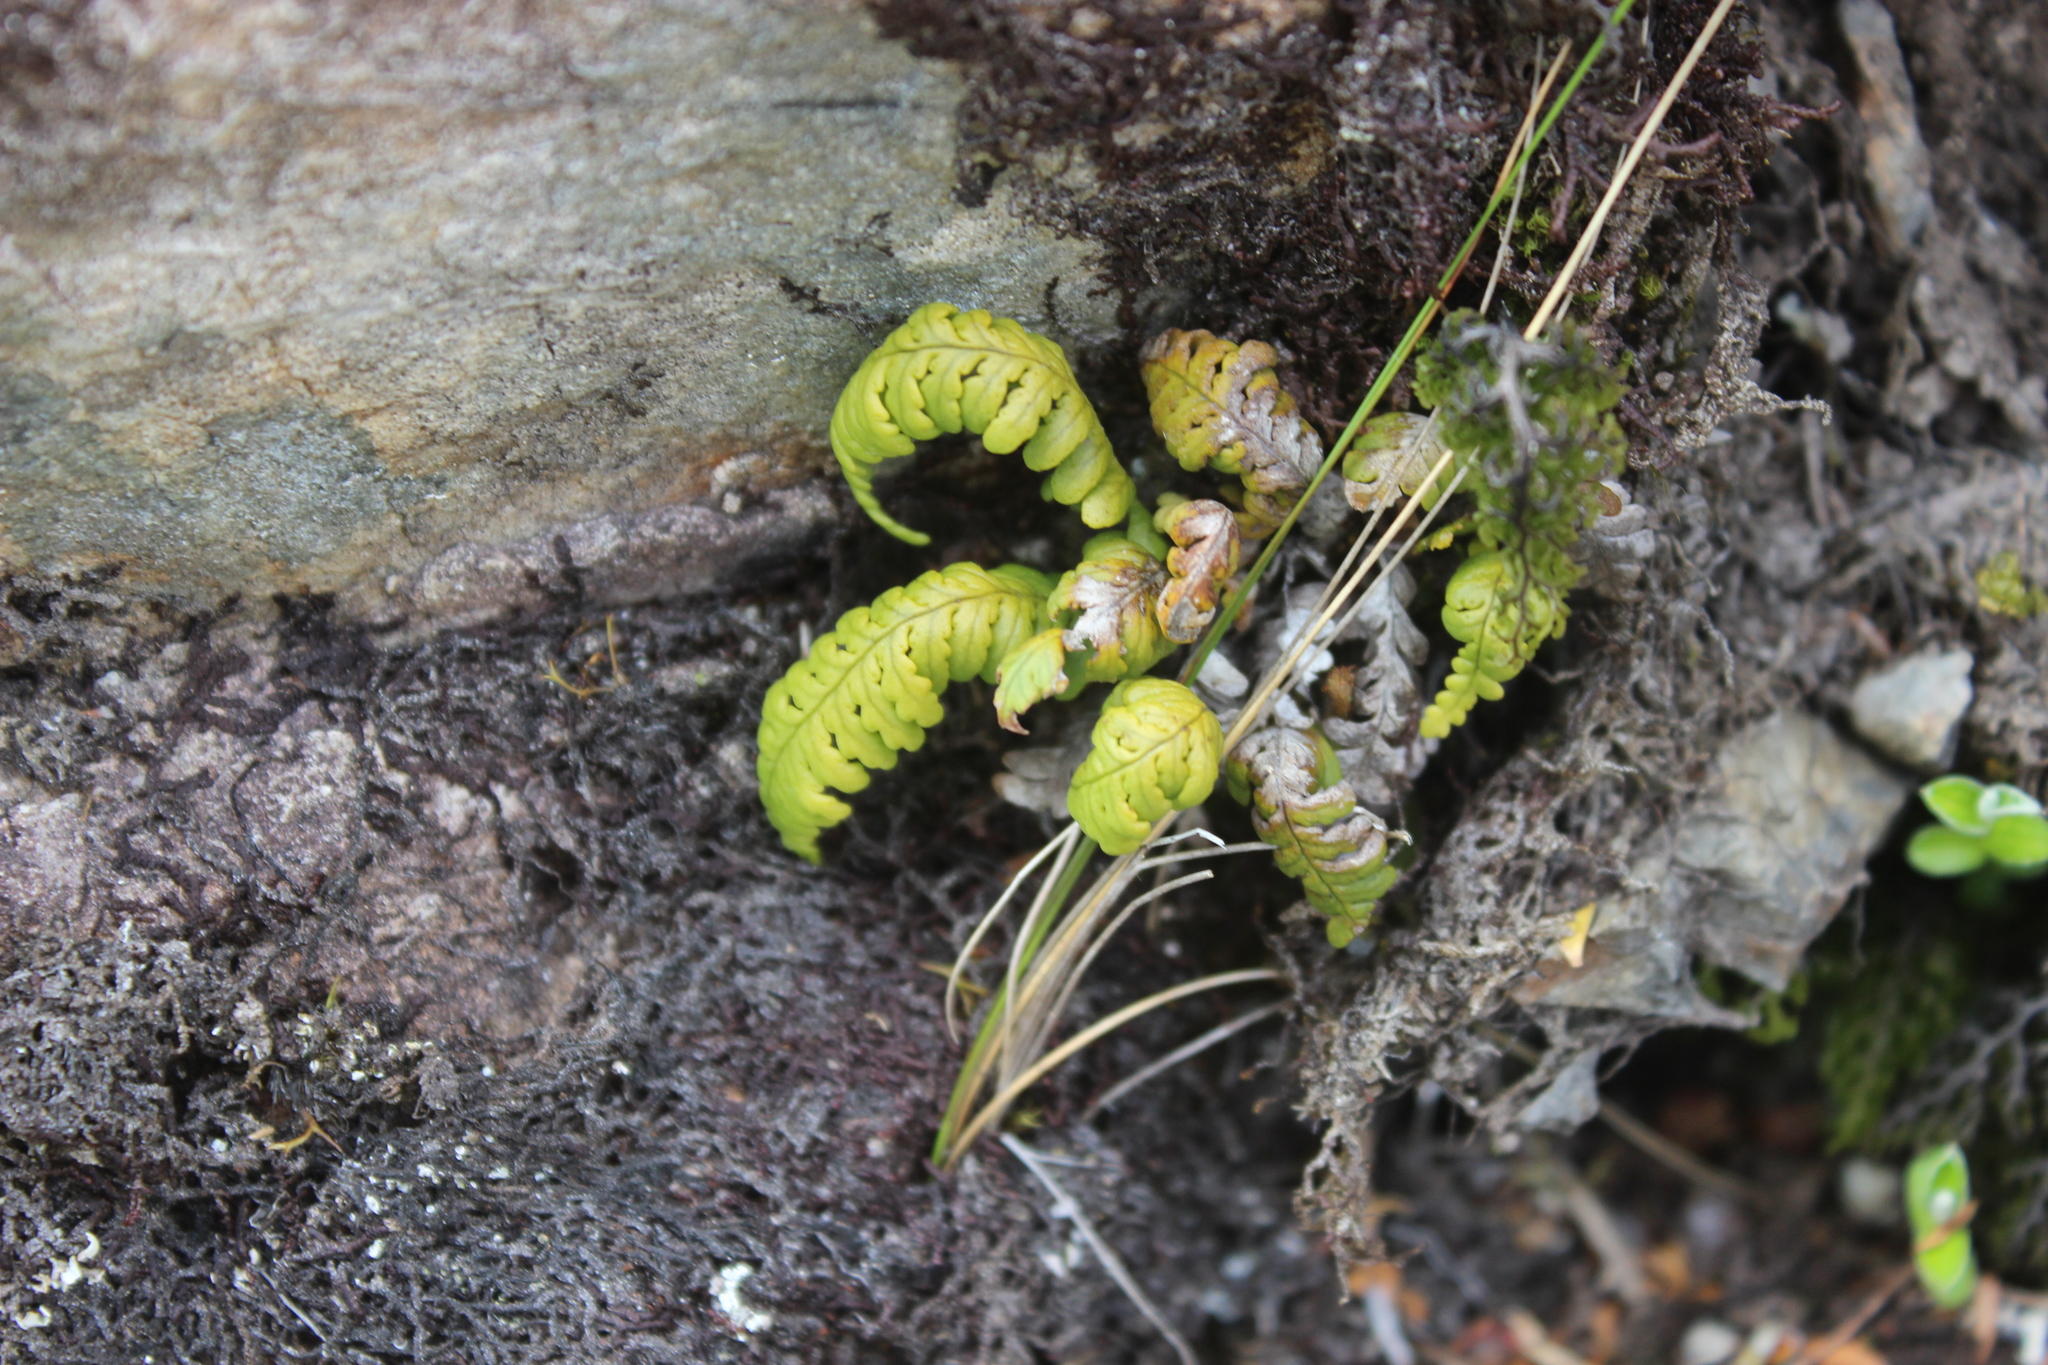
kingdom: Plantae
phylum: Tracheophyta
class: Polypodiopsida
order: Polypodiales
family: Polypodiaceae
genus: Notogrammitis
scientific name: Notogrammitis heterophylla
